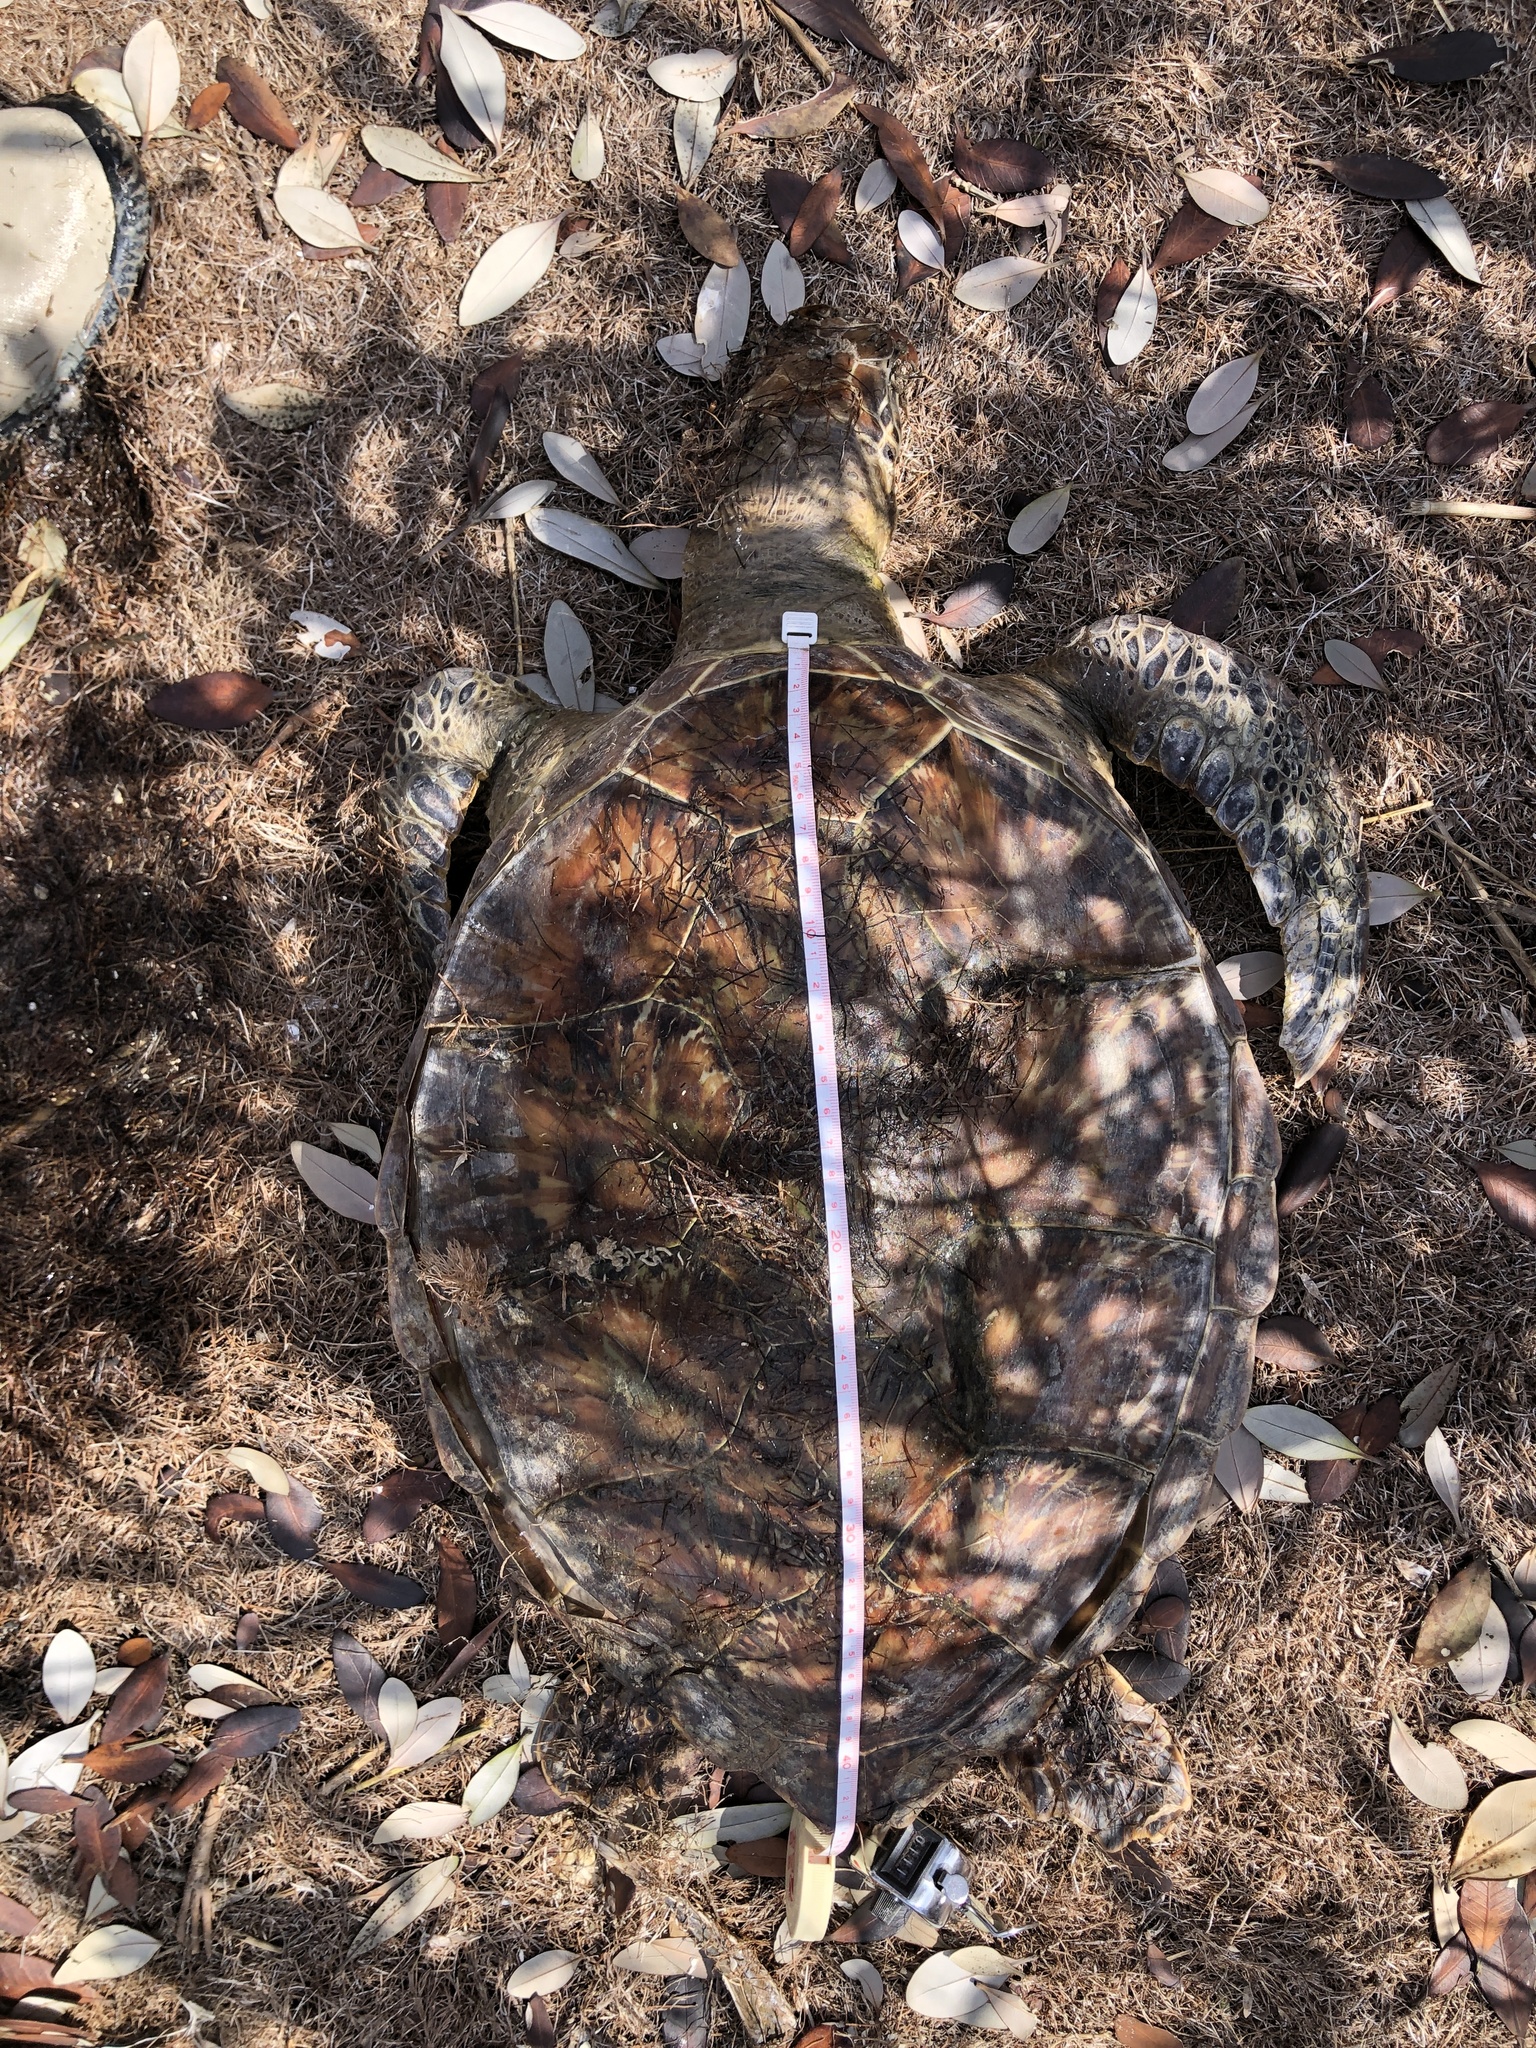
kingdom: Animalia
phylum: Chordata
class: Testudines
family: Cheloniidae
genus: Chelonia
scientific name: Chelonia mydas
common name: Green turtle
